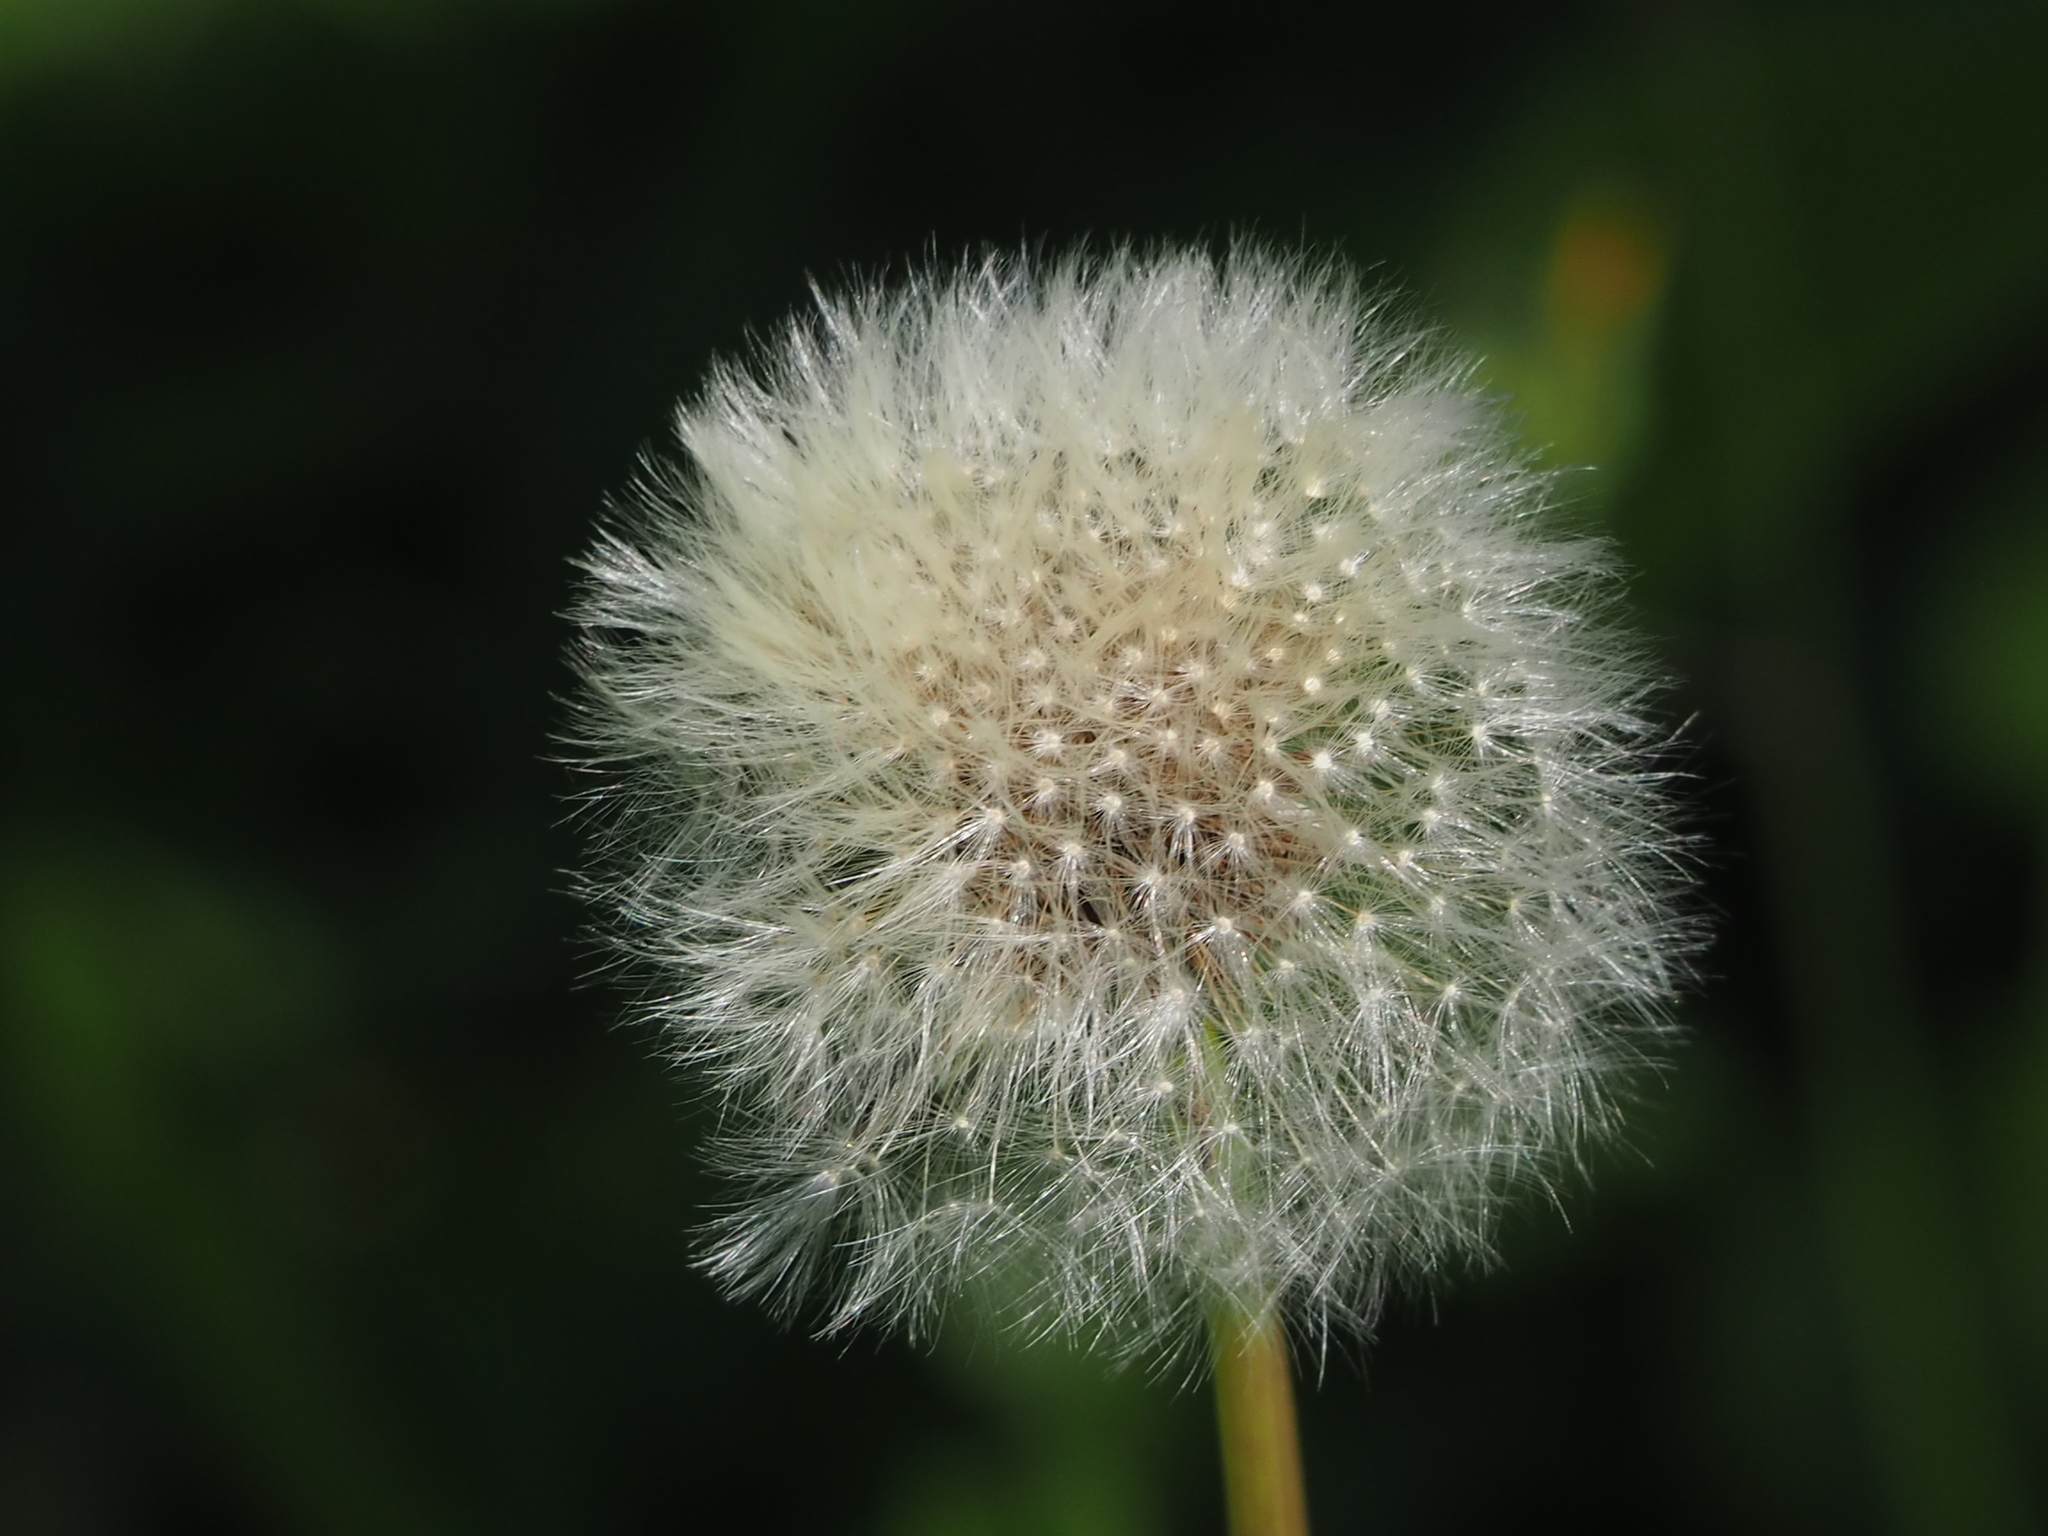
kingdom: Plantae
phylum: Tracheophyta
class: Magnoliopsida
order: Asterales
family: Asteraceae
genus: Taraxacum
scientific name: Taraxacum officinale
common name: Common dandelion
